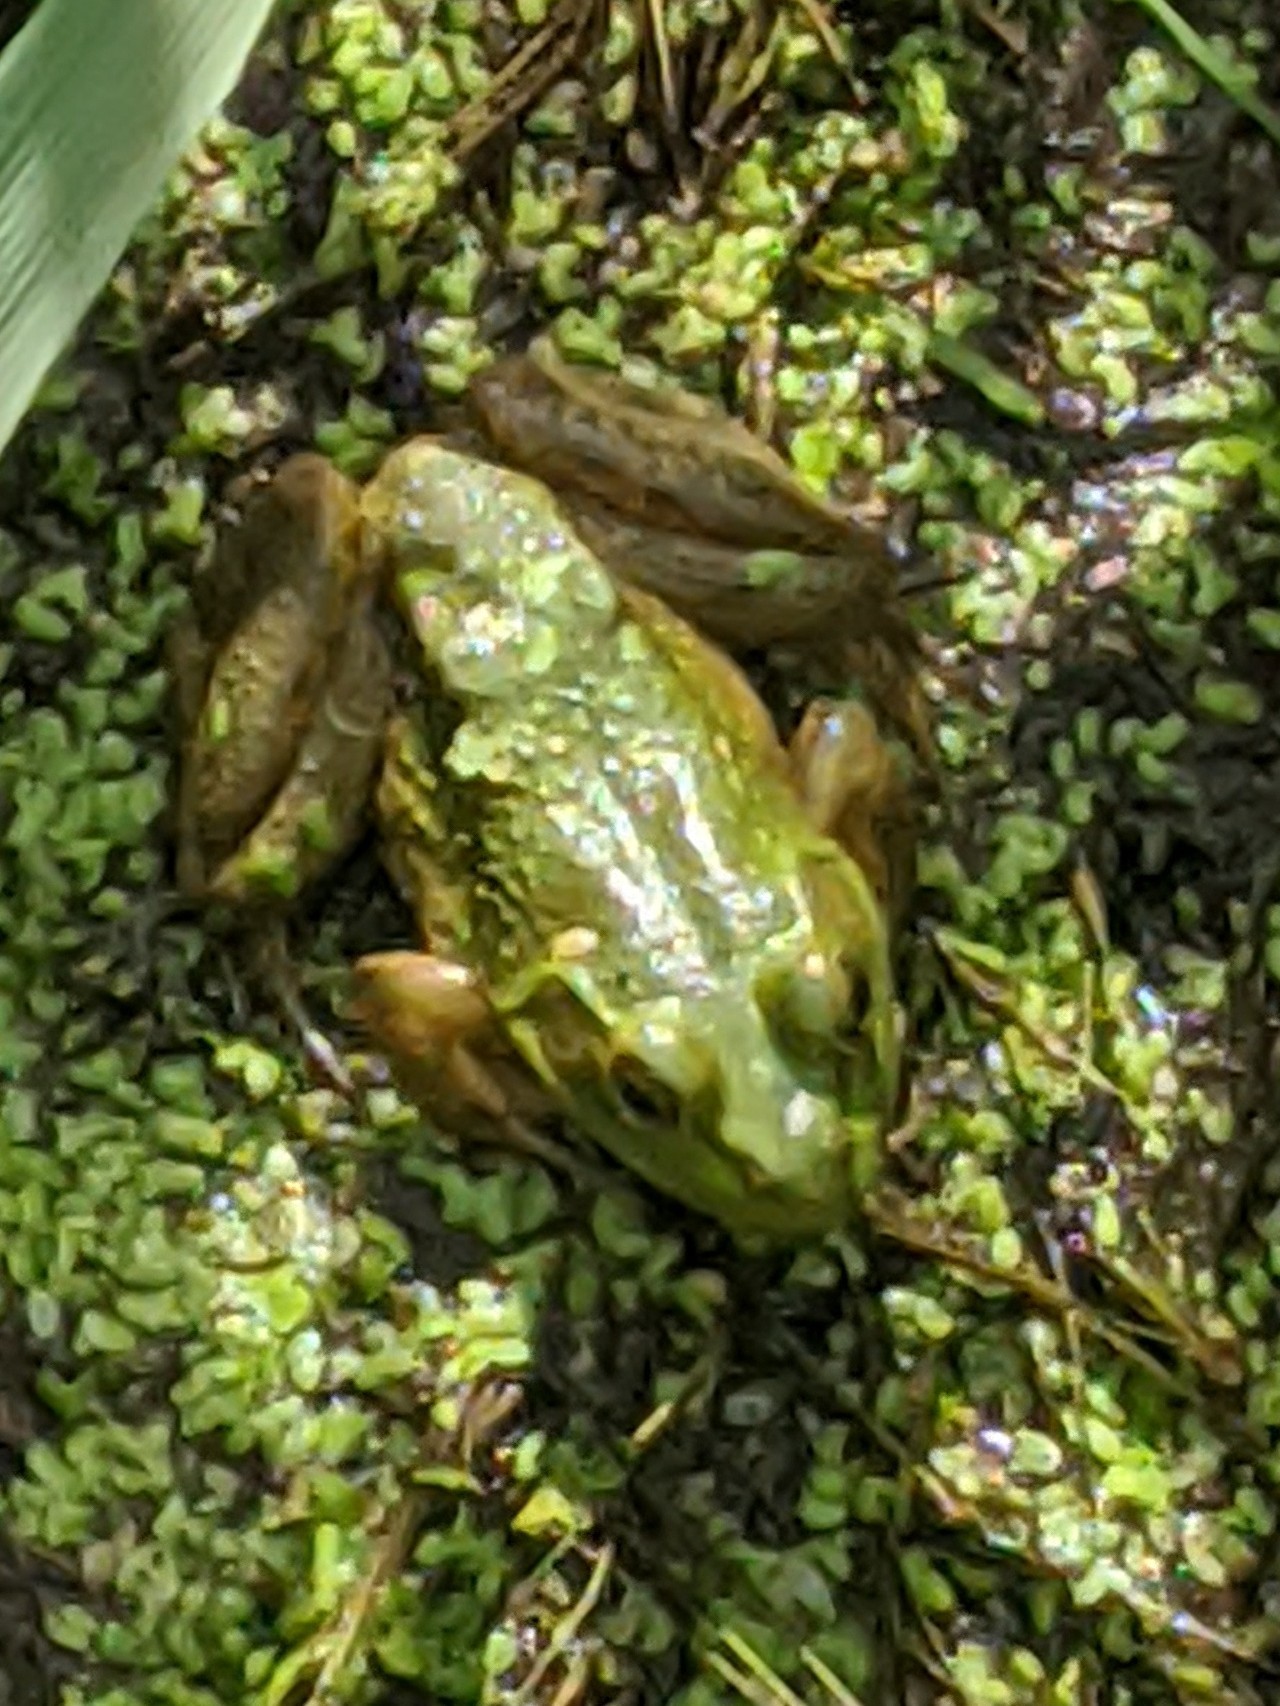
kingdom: Animalia
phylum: Chordata
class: Amphibia
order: Anura
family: Ranidae
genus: Lithobates
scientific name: Lithobates catesbeianus
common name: American bullfrog
